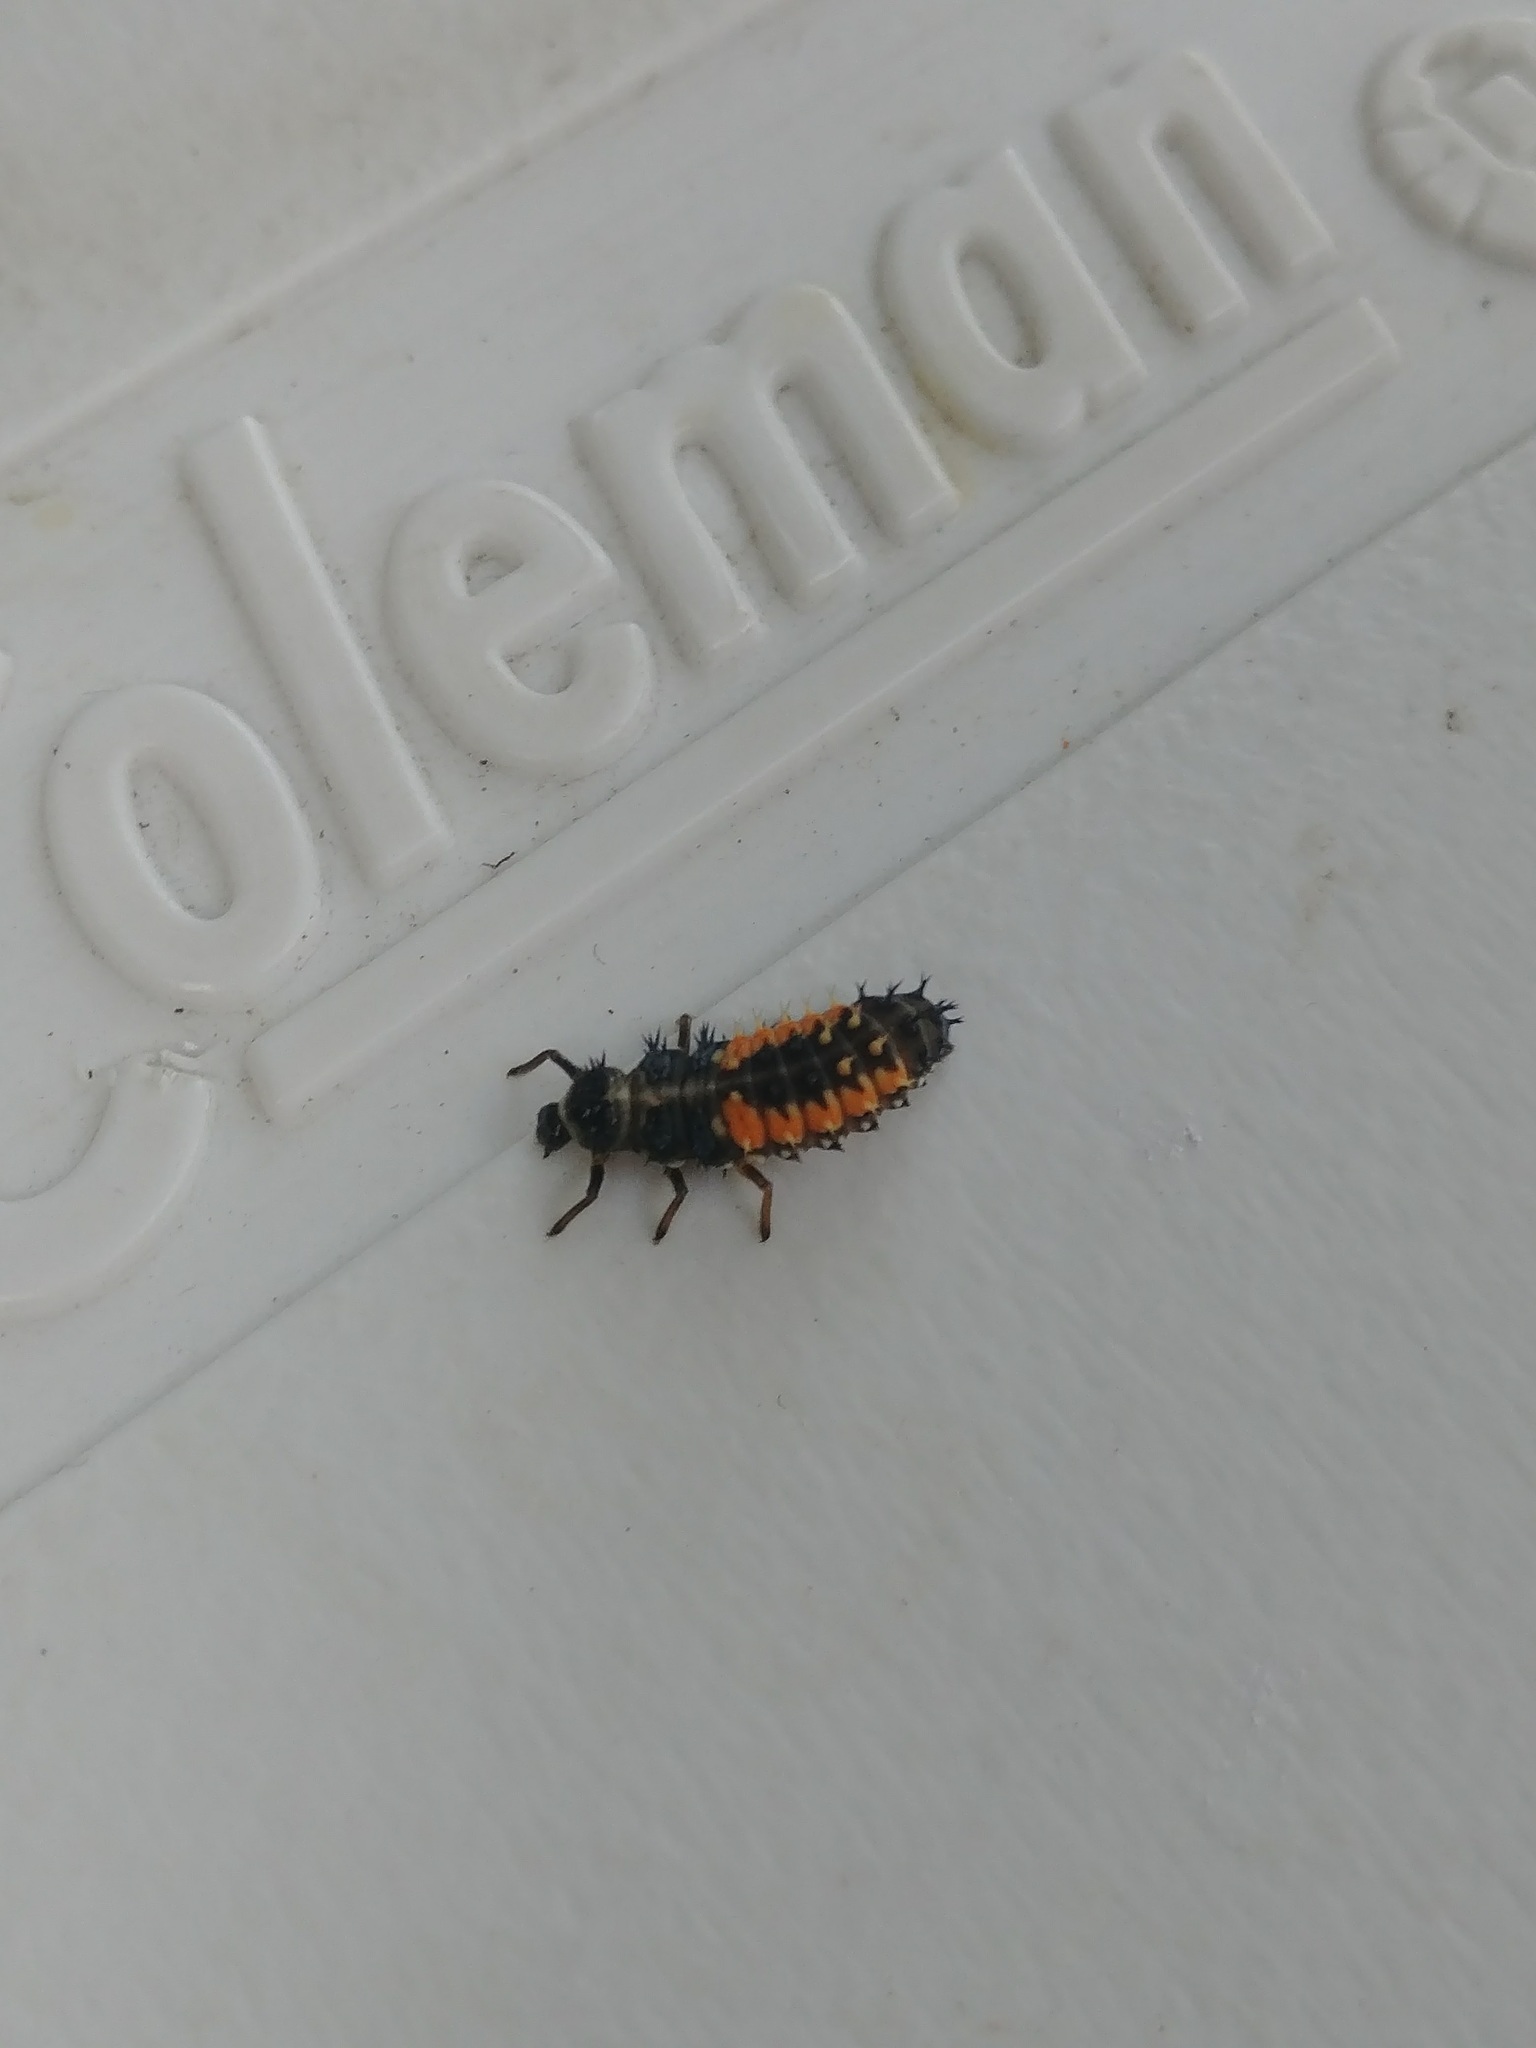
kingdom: Animalia
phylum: Arthropoda
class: Insecta
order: Coleoptera
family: Coccinellidae
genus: Harmonia
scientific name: Harmonia axyridis
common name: Harlequin ladybird
